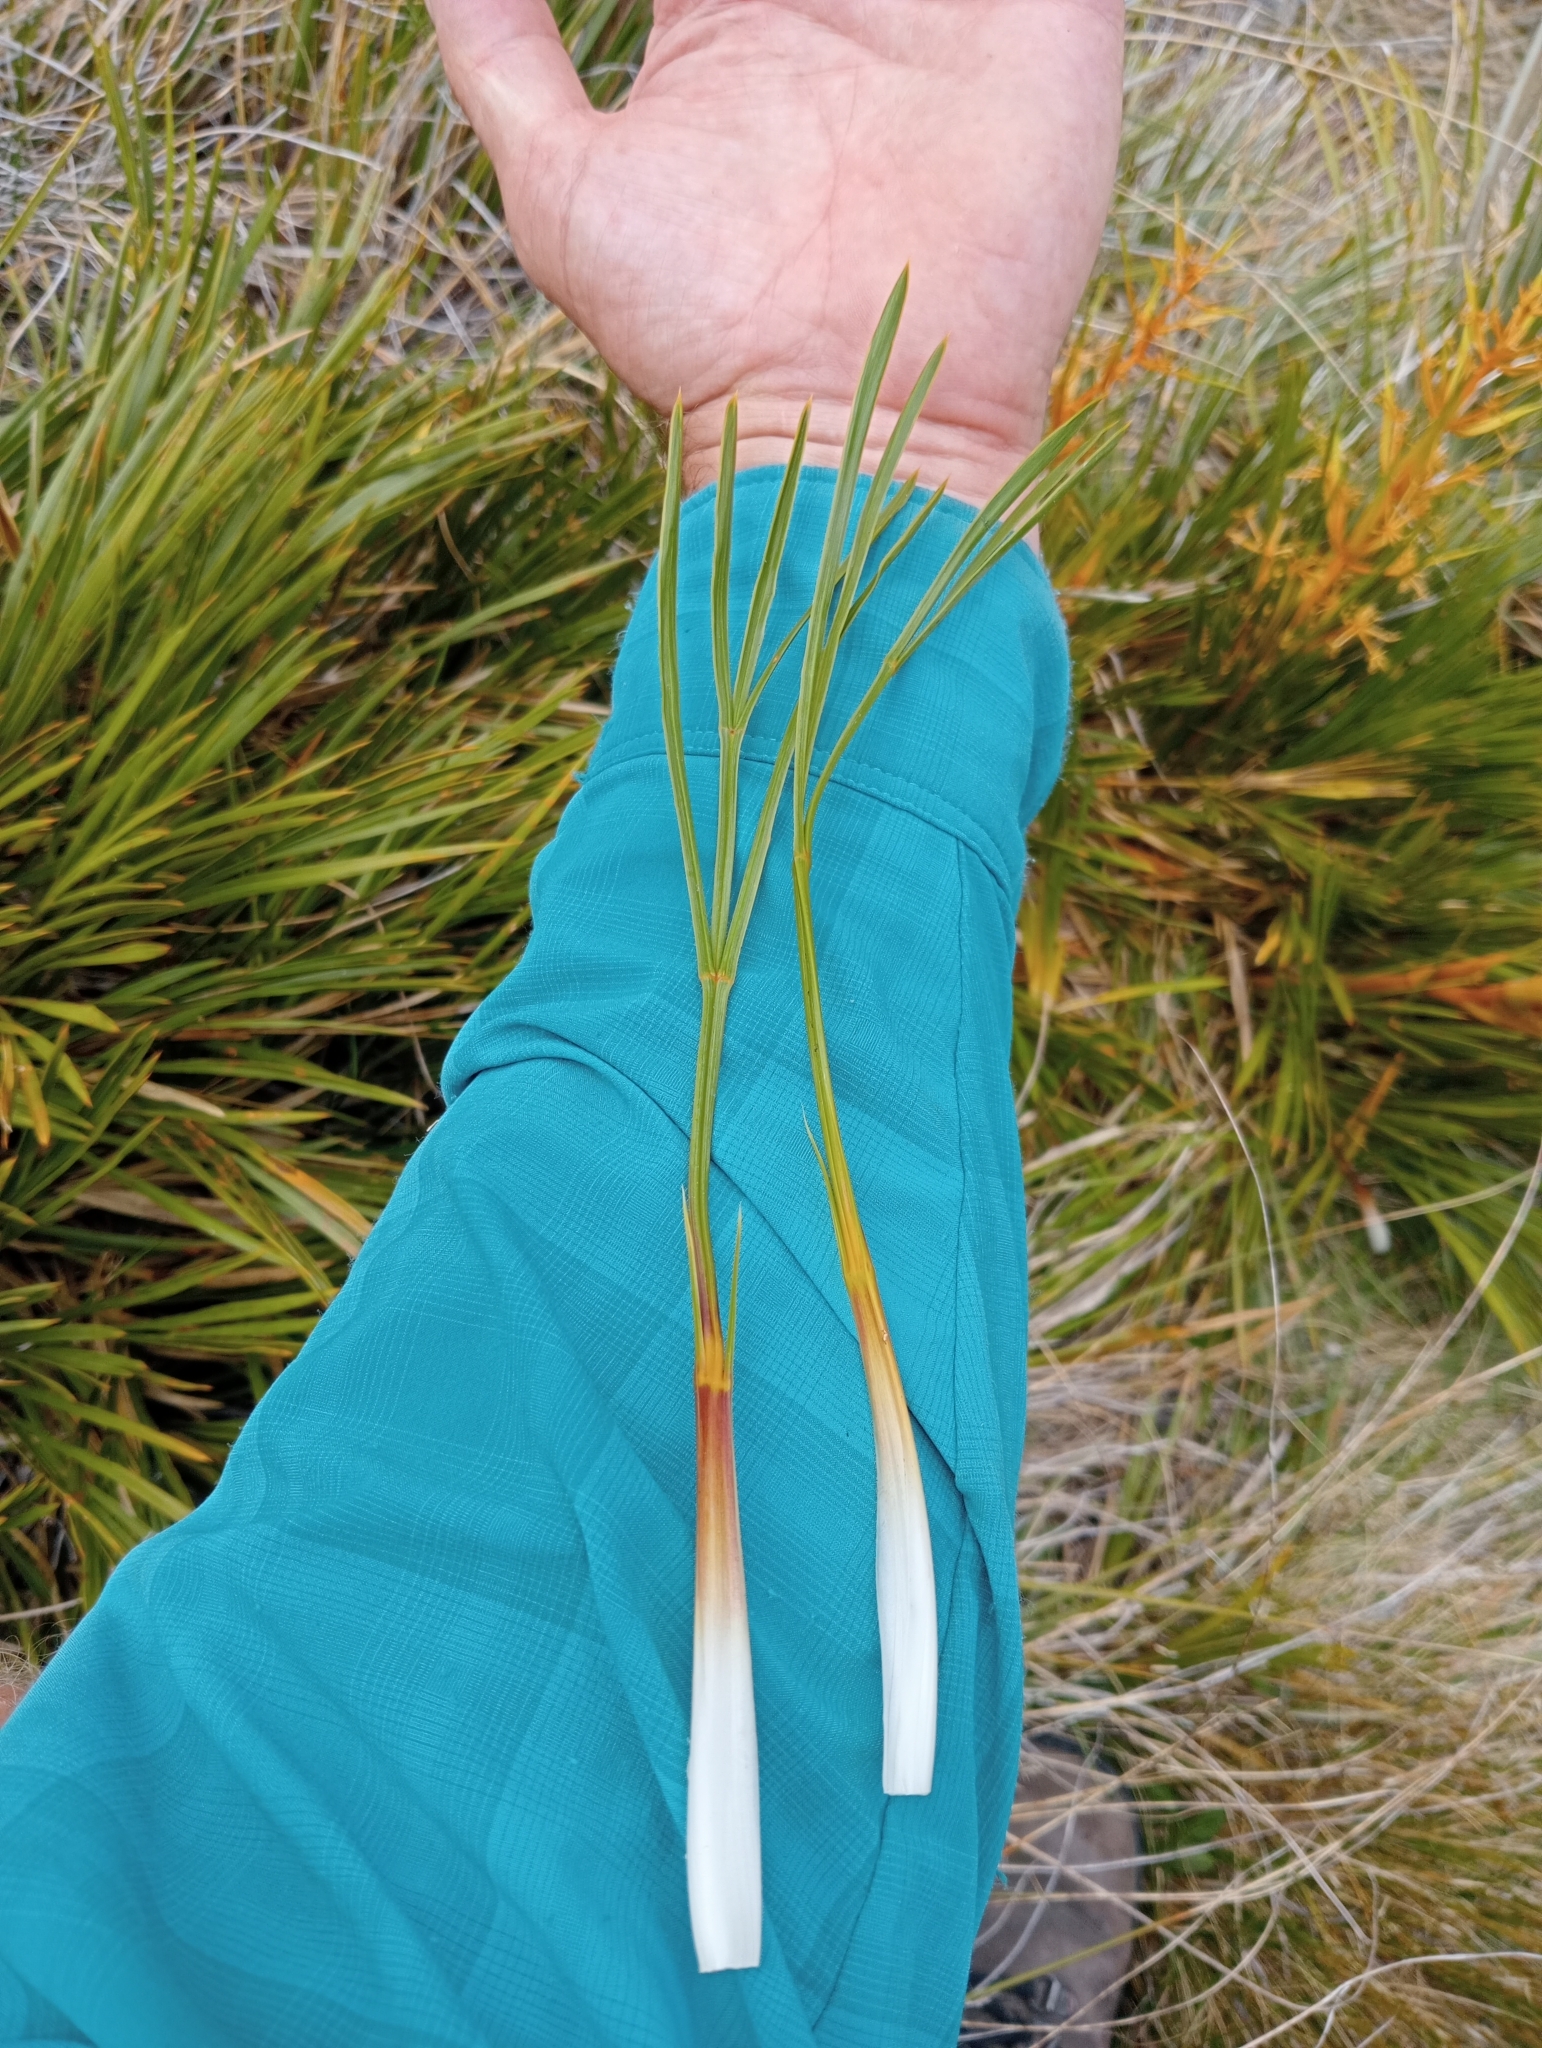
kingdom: Plantae
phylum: Tracheophyta
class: Magnoliopsida
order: Apiales
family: Apiaceae
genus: Aciphylla
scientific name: Aciphylla montana
